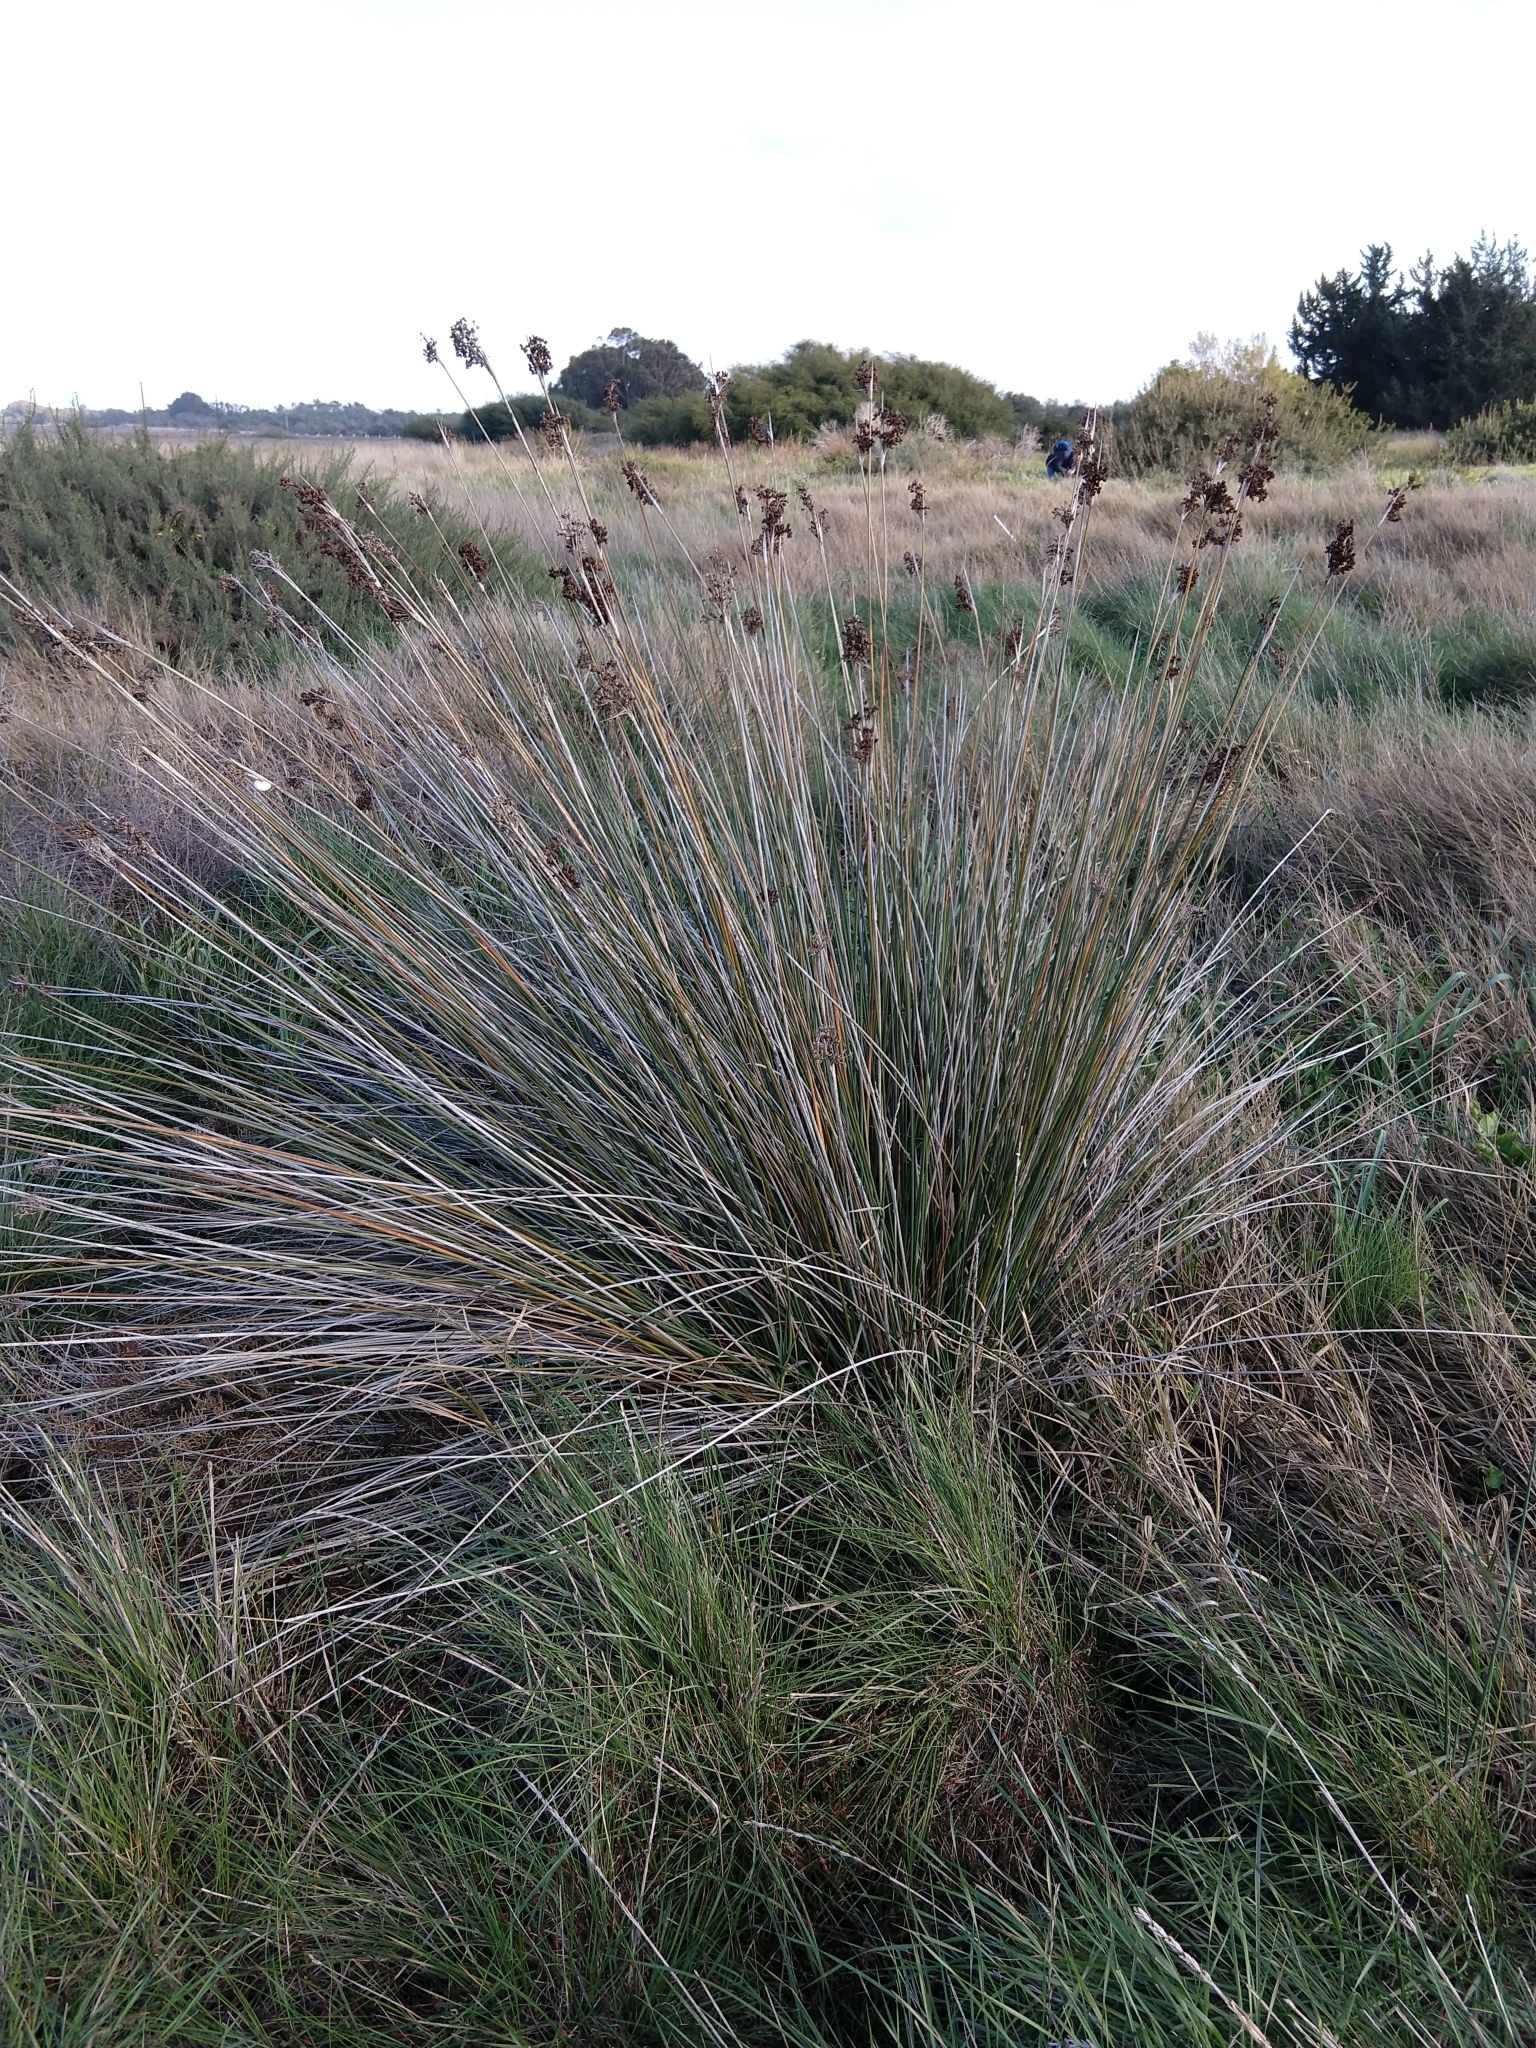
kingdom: Plantae
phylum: Tracheophyta
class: Liliopsida
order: Poales
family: Juncaceae
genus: Juncus
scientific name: Juncus acutus
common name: Sharp rush
